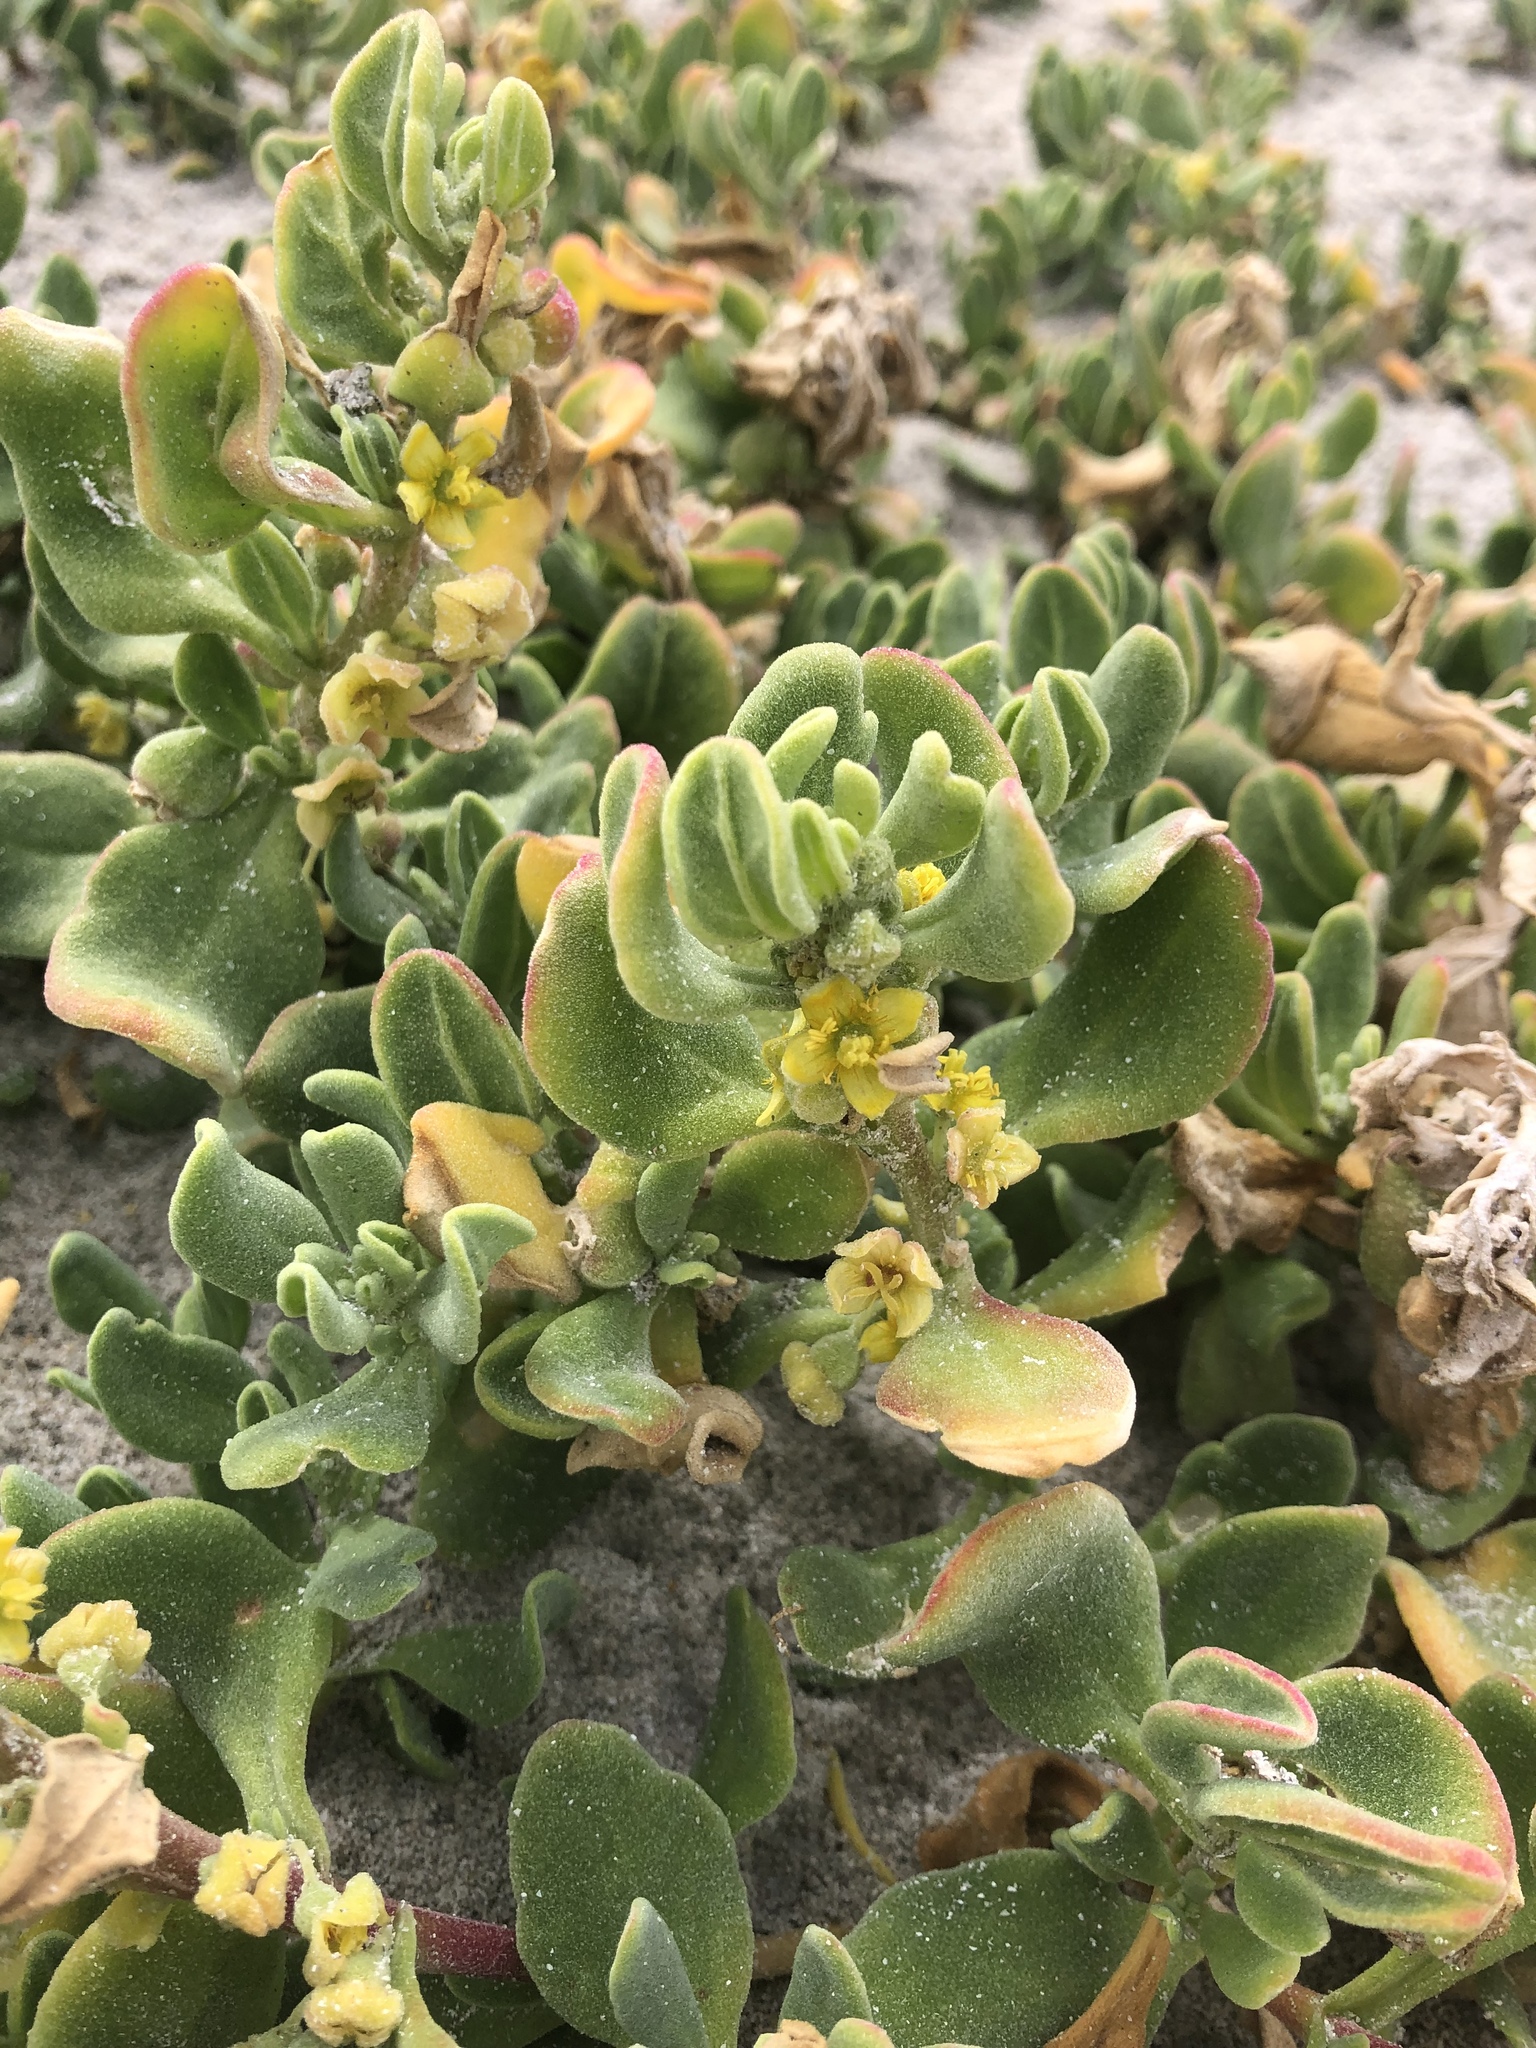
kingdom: Plantae
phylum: Tracheophyta
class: Magnoliopsida
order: Caryophyllales
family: Aizoaceae
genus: Tetragonia
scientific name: Tetragonia decumbens
